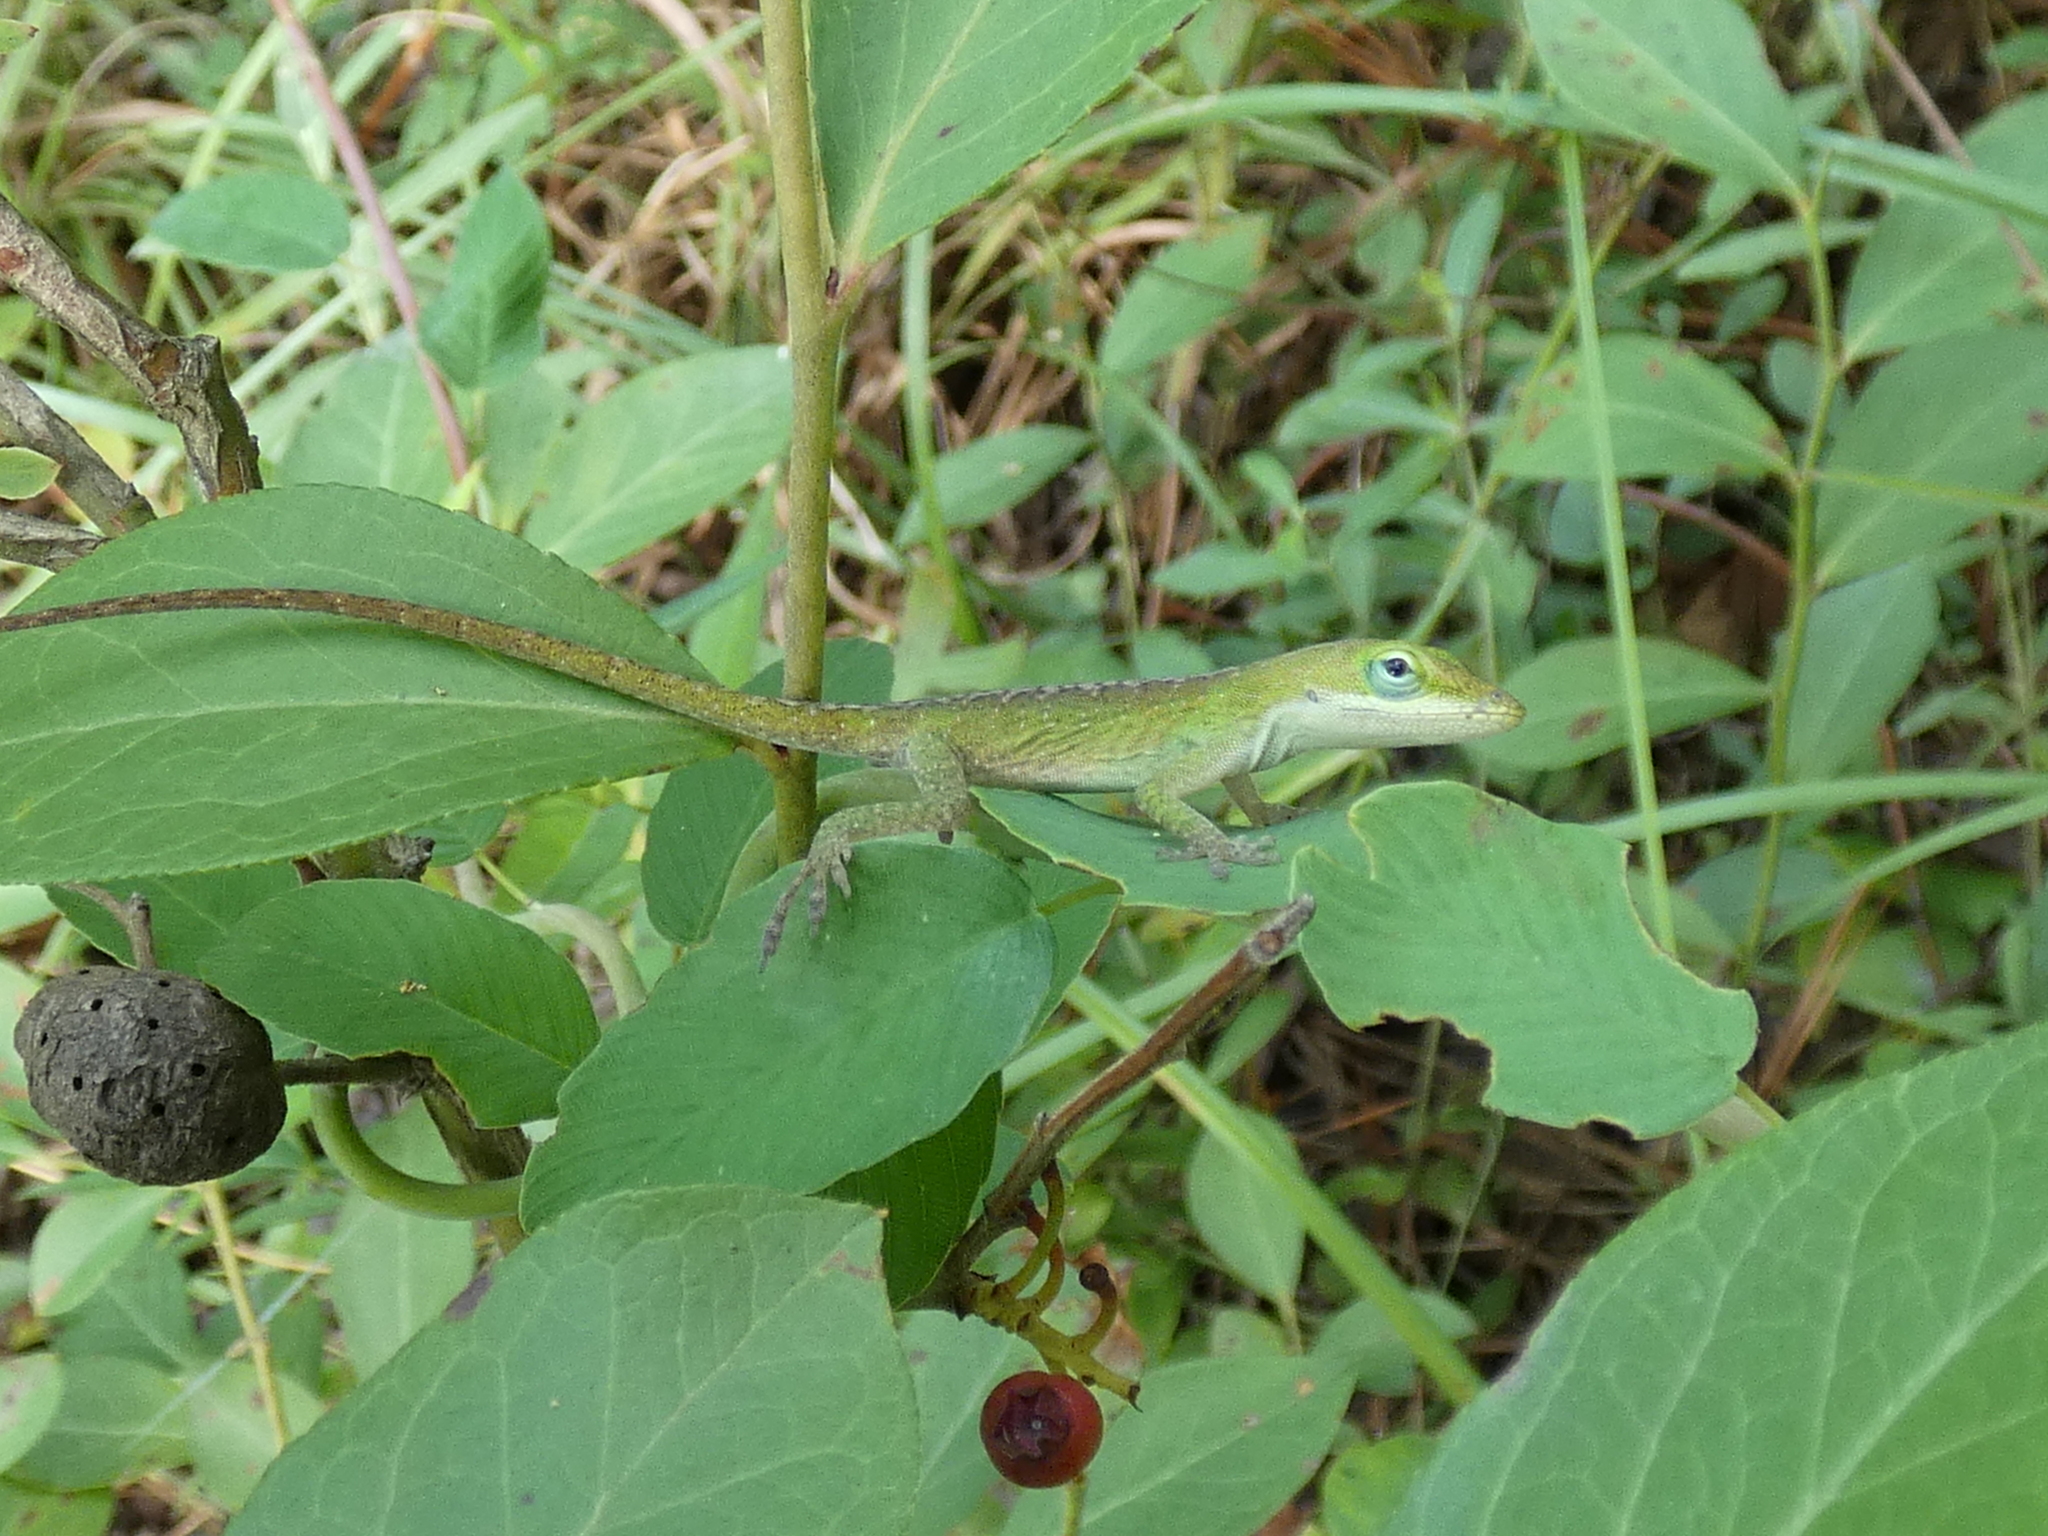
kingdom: Animalia
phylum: Chordata
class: Squamata
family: Dactyloidae
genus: Anolis
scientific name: Anolis carolinensis
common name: Green anole
